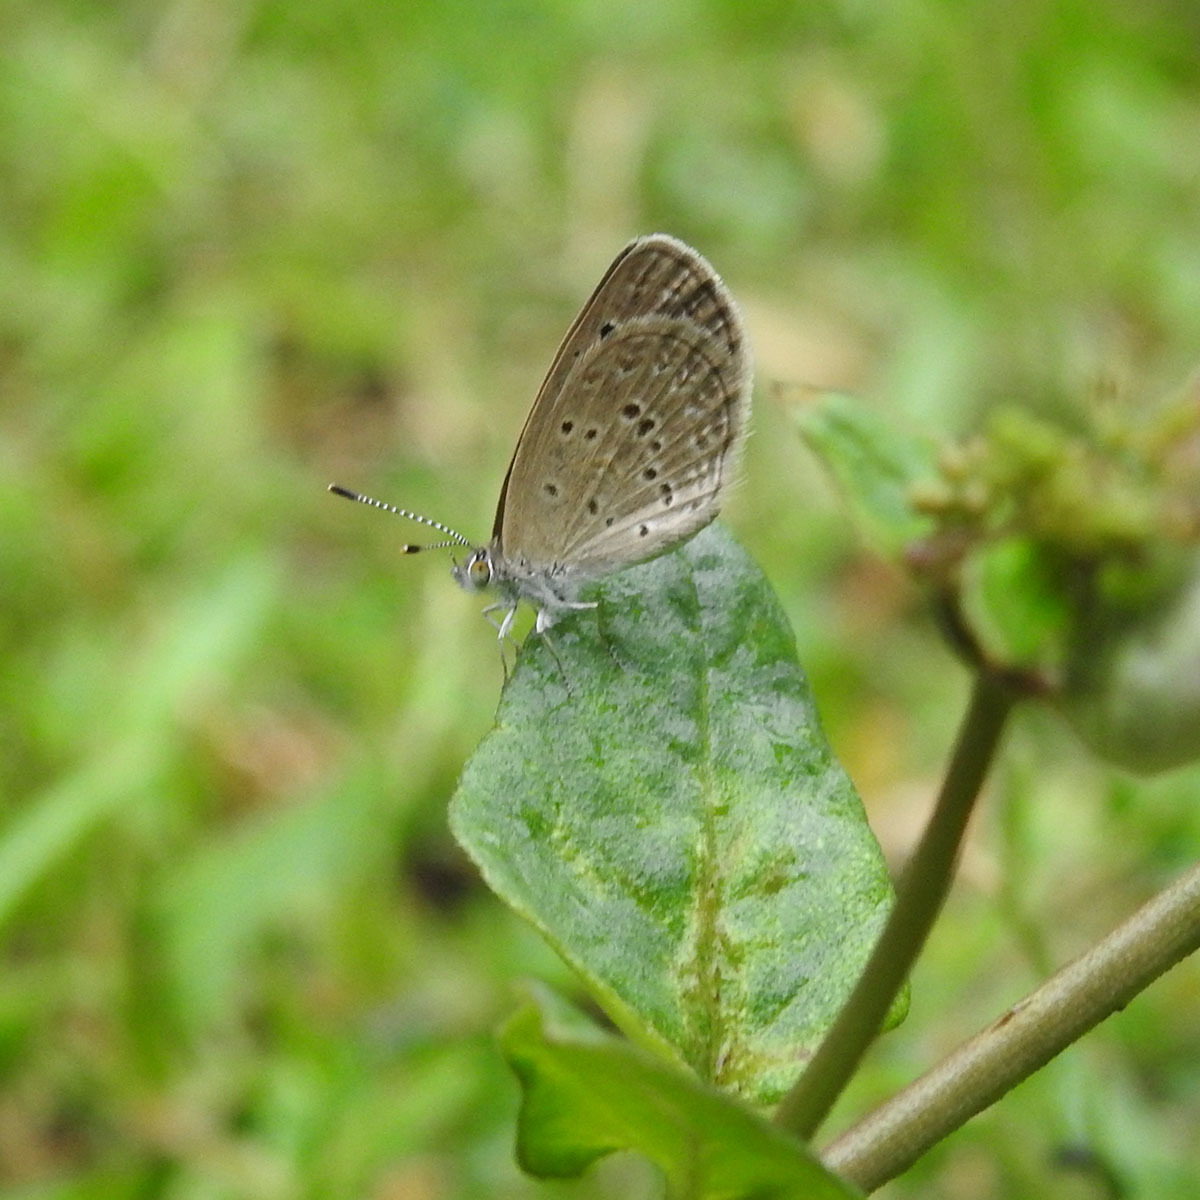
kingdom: Animalia
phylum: Arthropoda
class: Insecta
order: Lepidoptera
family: Lycaenidae
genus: Zizina
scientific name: Zizina otis
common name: Lesser grass blue
